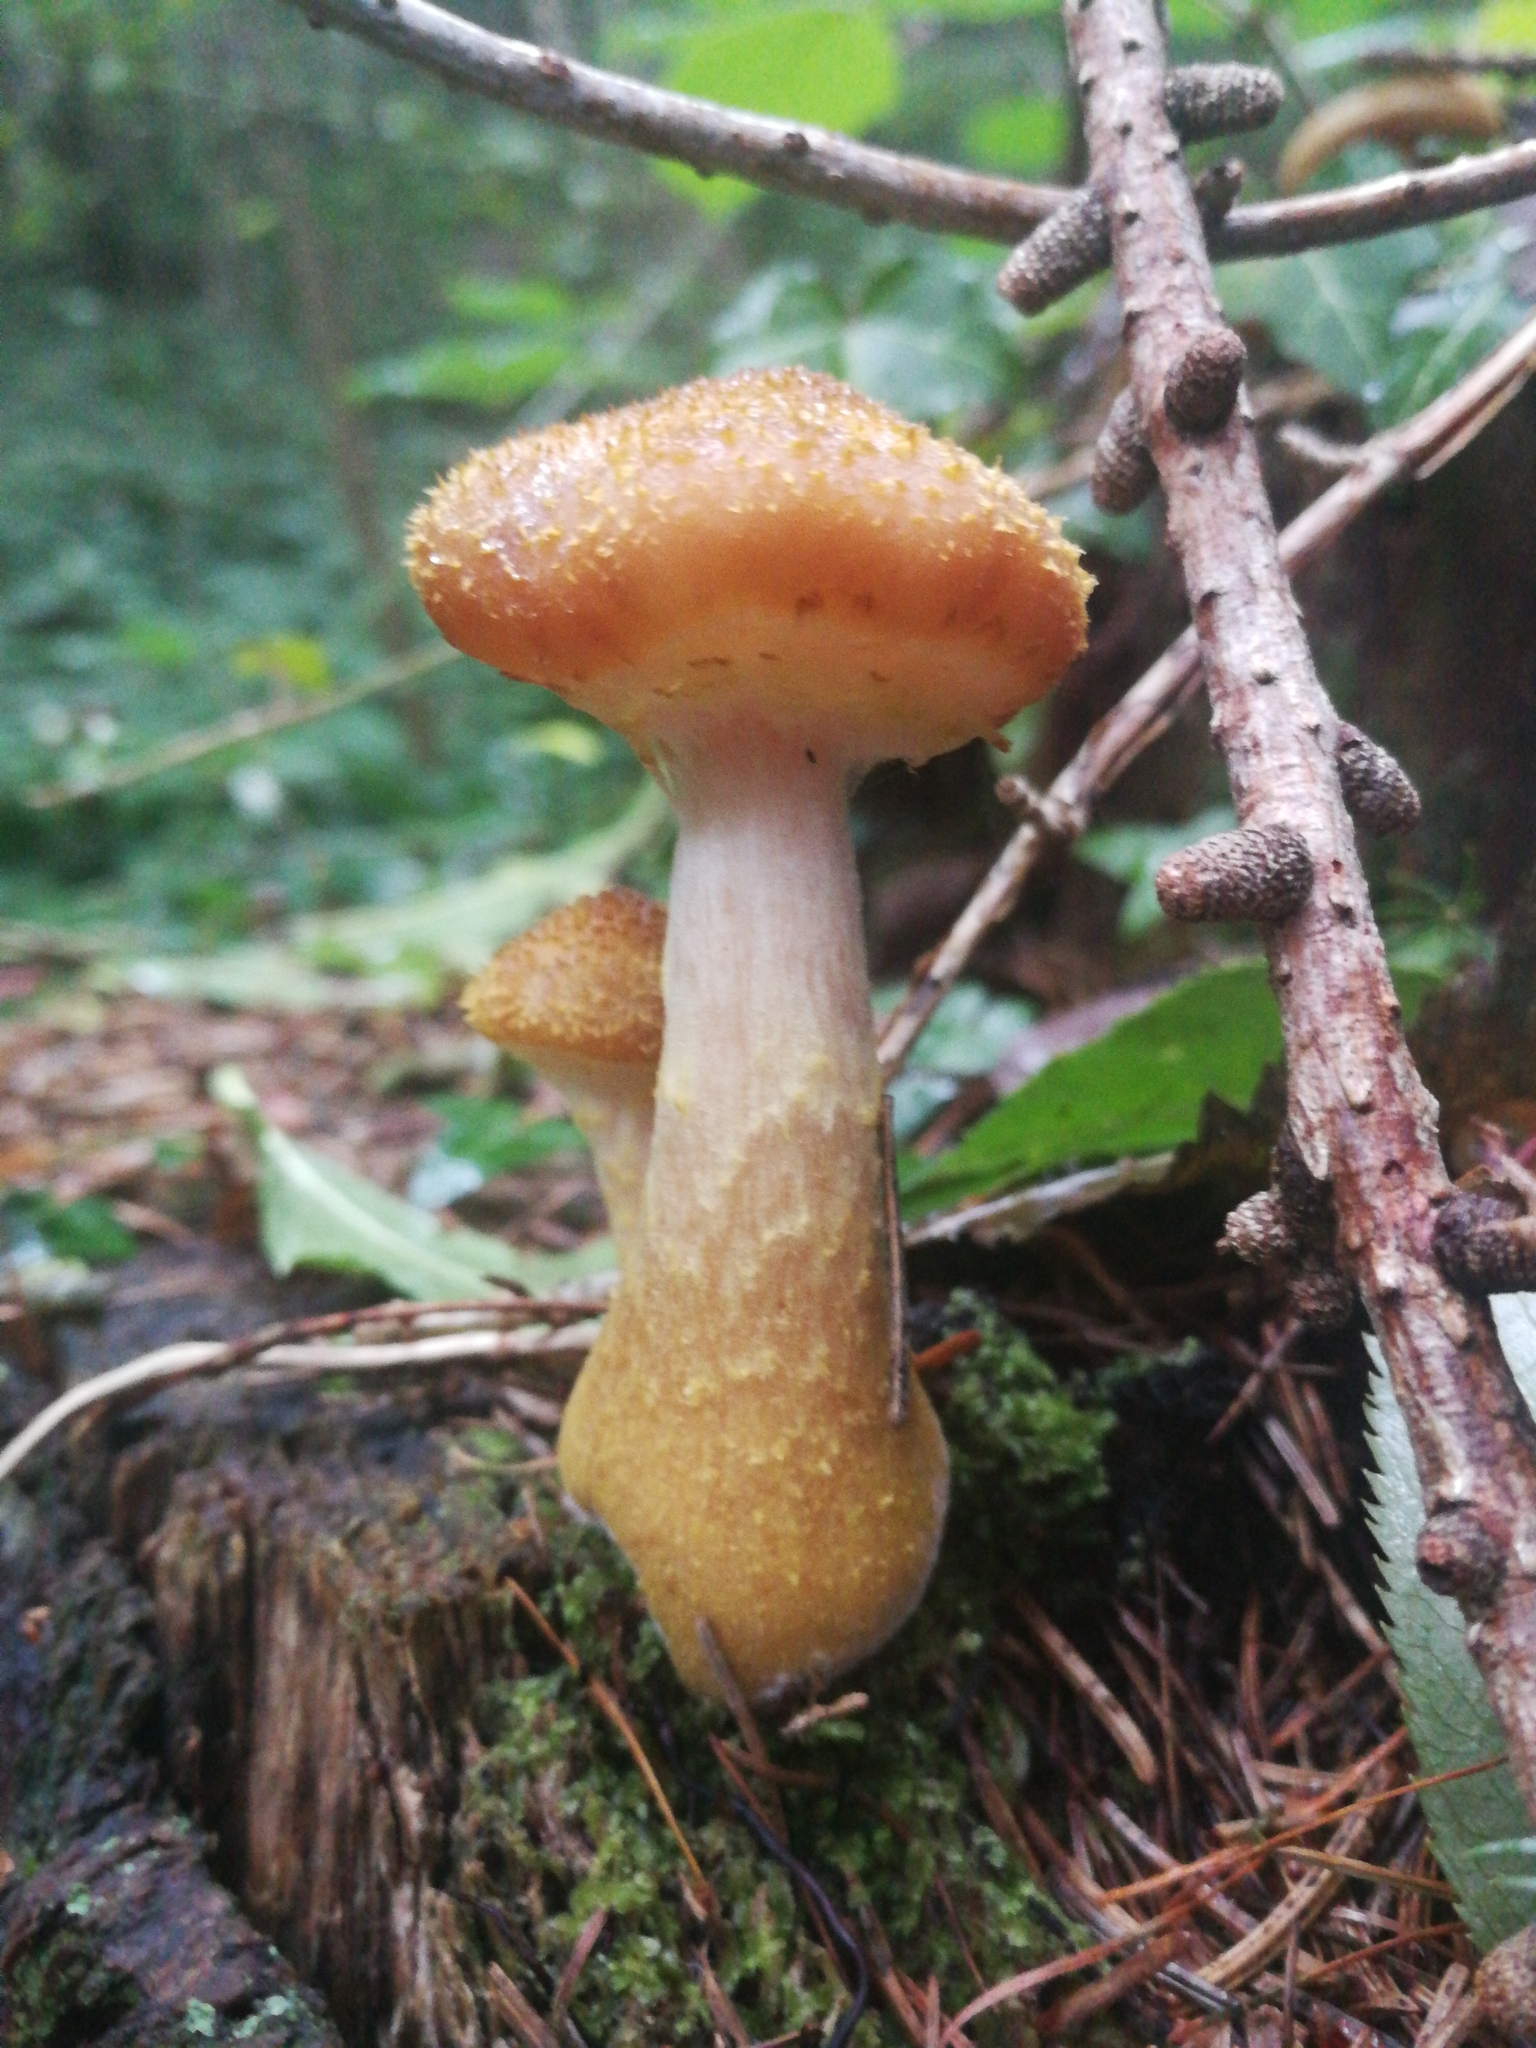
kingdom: Fungi
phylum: Basidiomycota
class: Agaricomycetes
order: Agaricales
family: Physalacriaceae
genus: Armillaria
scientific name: Armillaria gallica
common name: Bulbous honey fungus
